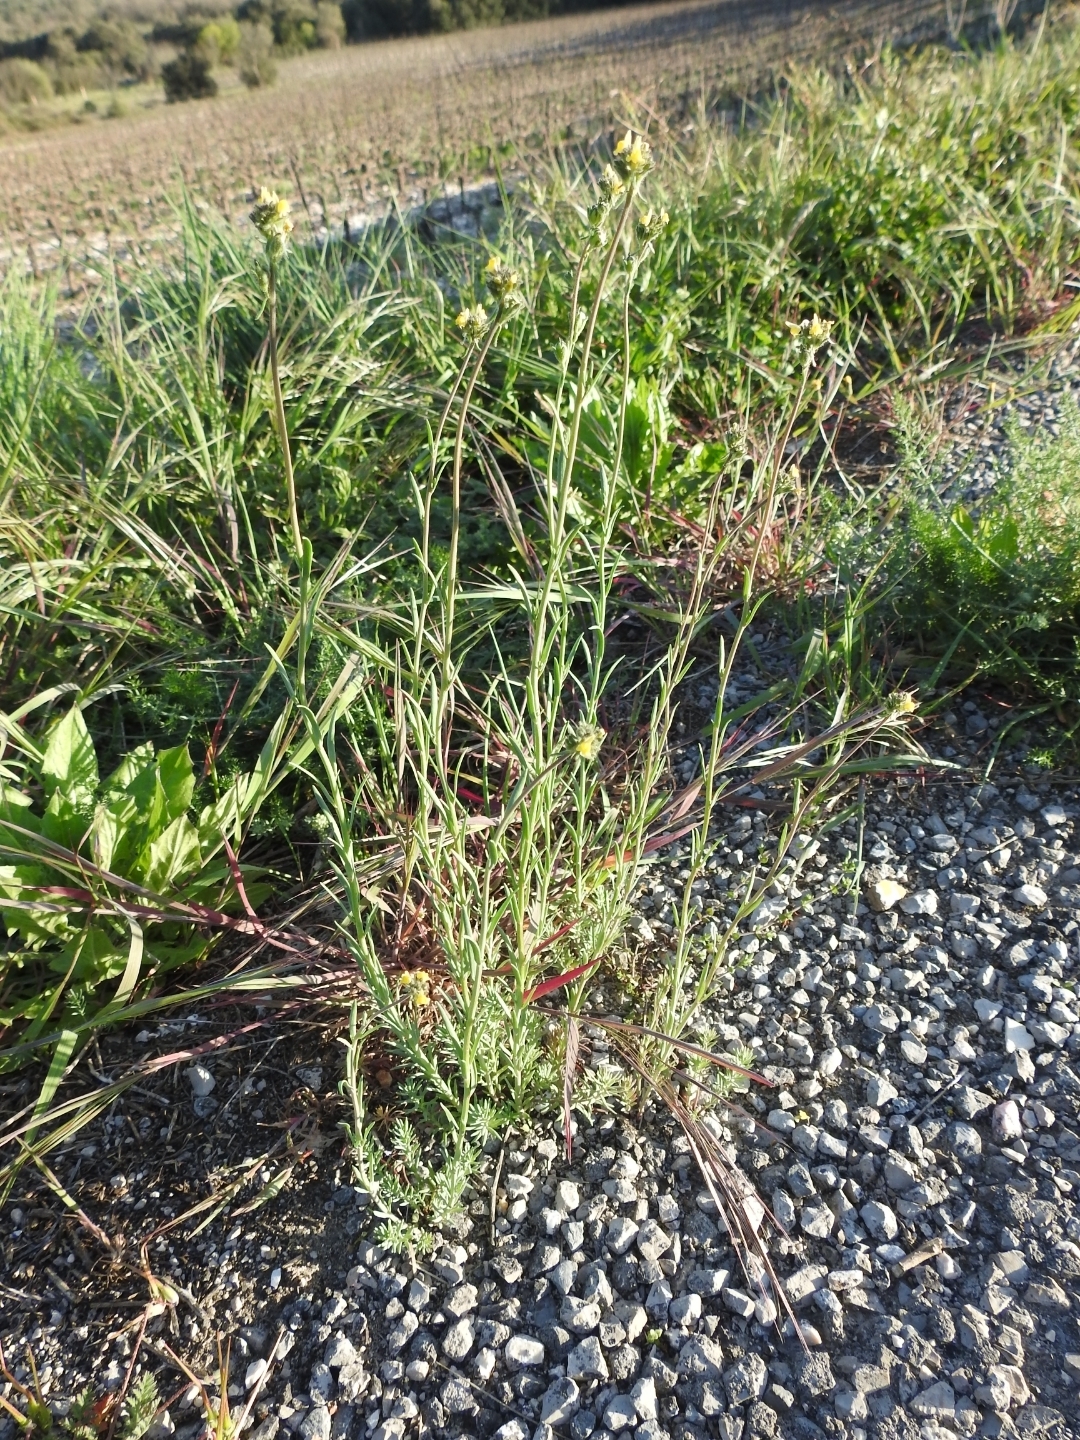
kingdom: Plantae
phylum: Tracheophyta
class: Magnoliopsida
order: Lamiales
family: Plantaginaceae
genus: Linaria
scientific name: Linaria simplex
